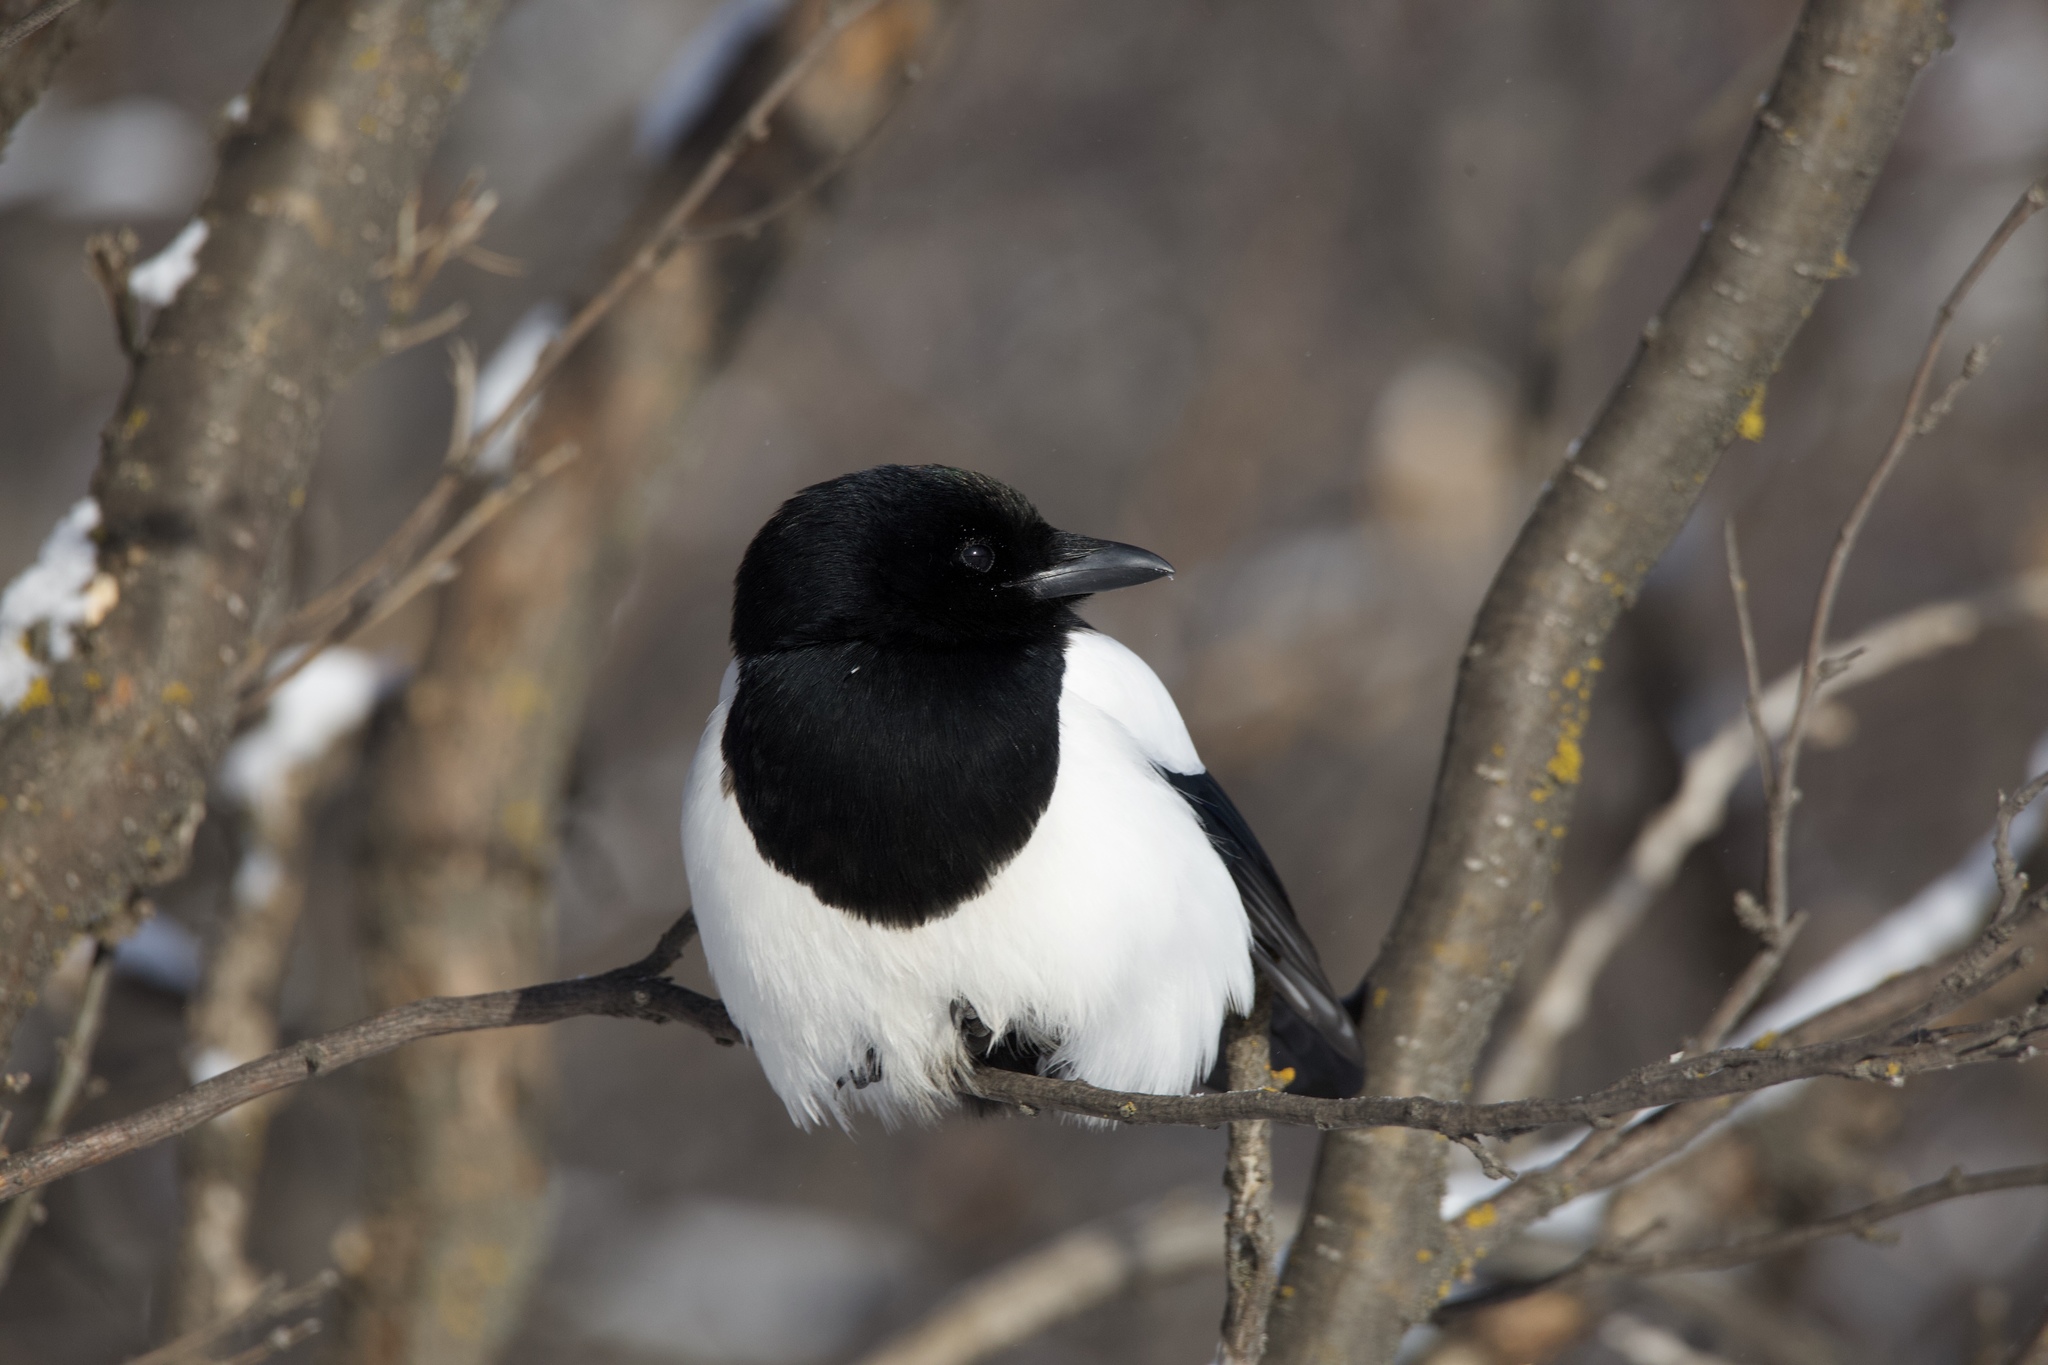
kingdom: Animalia
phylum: Chordata
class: Aves
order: Passeriformes
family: Corvidae
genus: Pica
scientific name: Pica hudsonia
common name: Black-billed magpie
